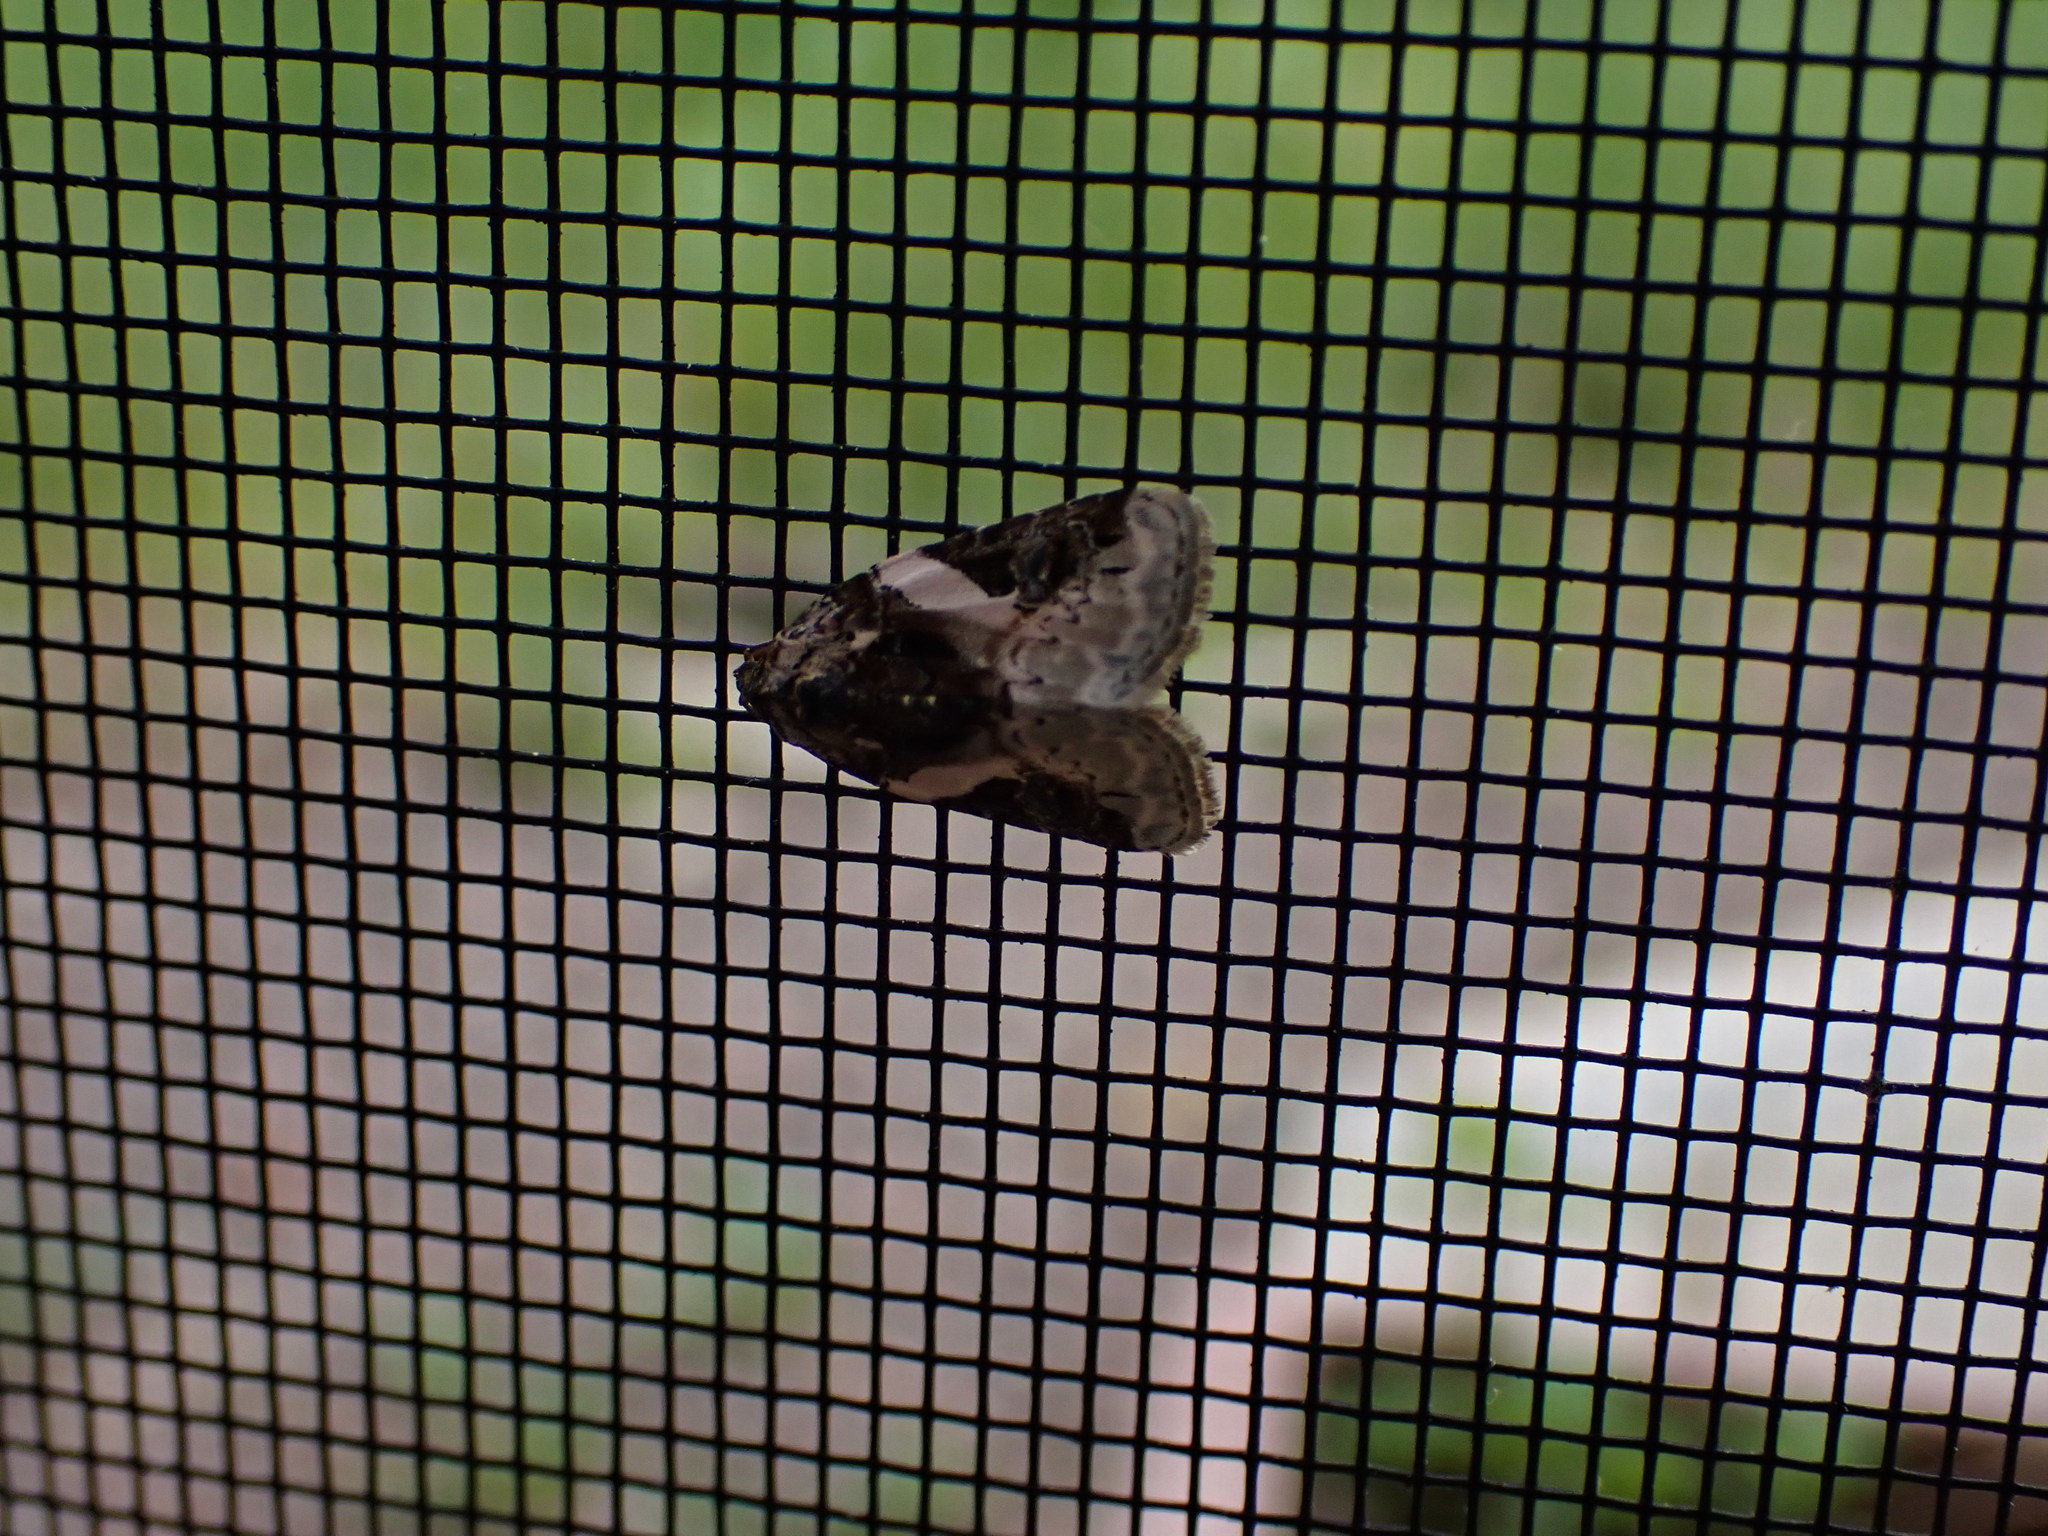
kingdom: Animalia
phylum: Arthropoda
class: Insecta
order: Lepidoptera
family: Noctuidae
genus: Pseudeustrotia
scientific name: Pseudeustrotia carneola
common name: Pink-barred lithacodia moth
